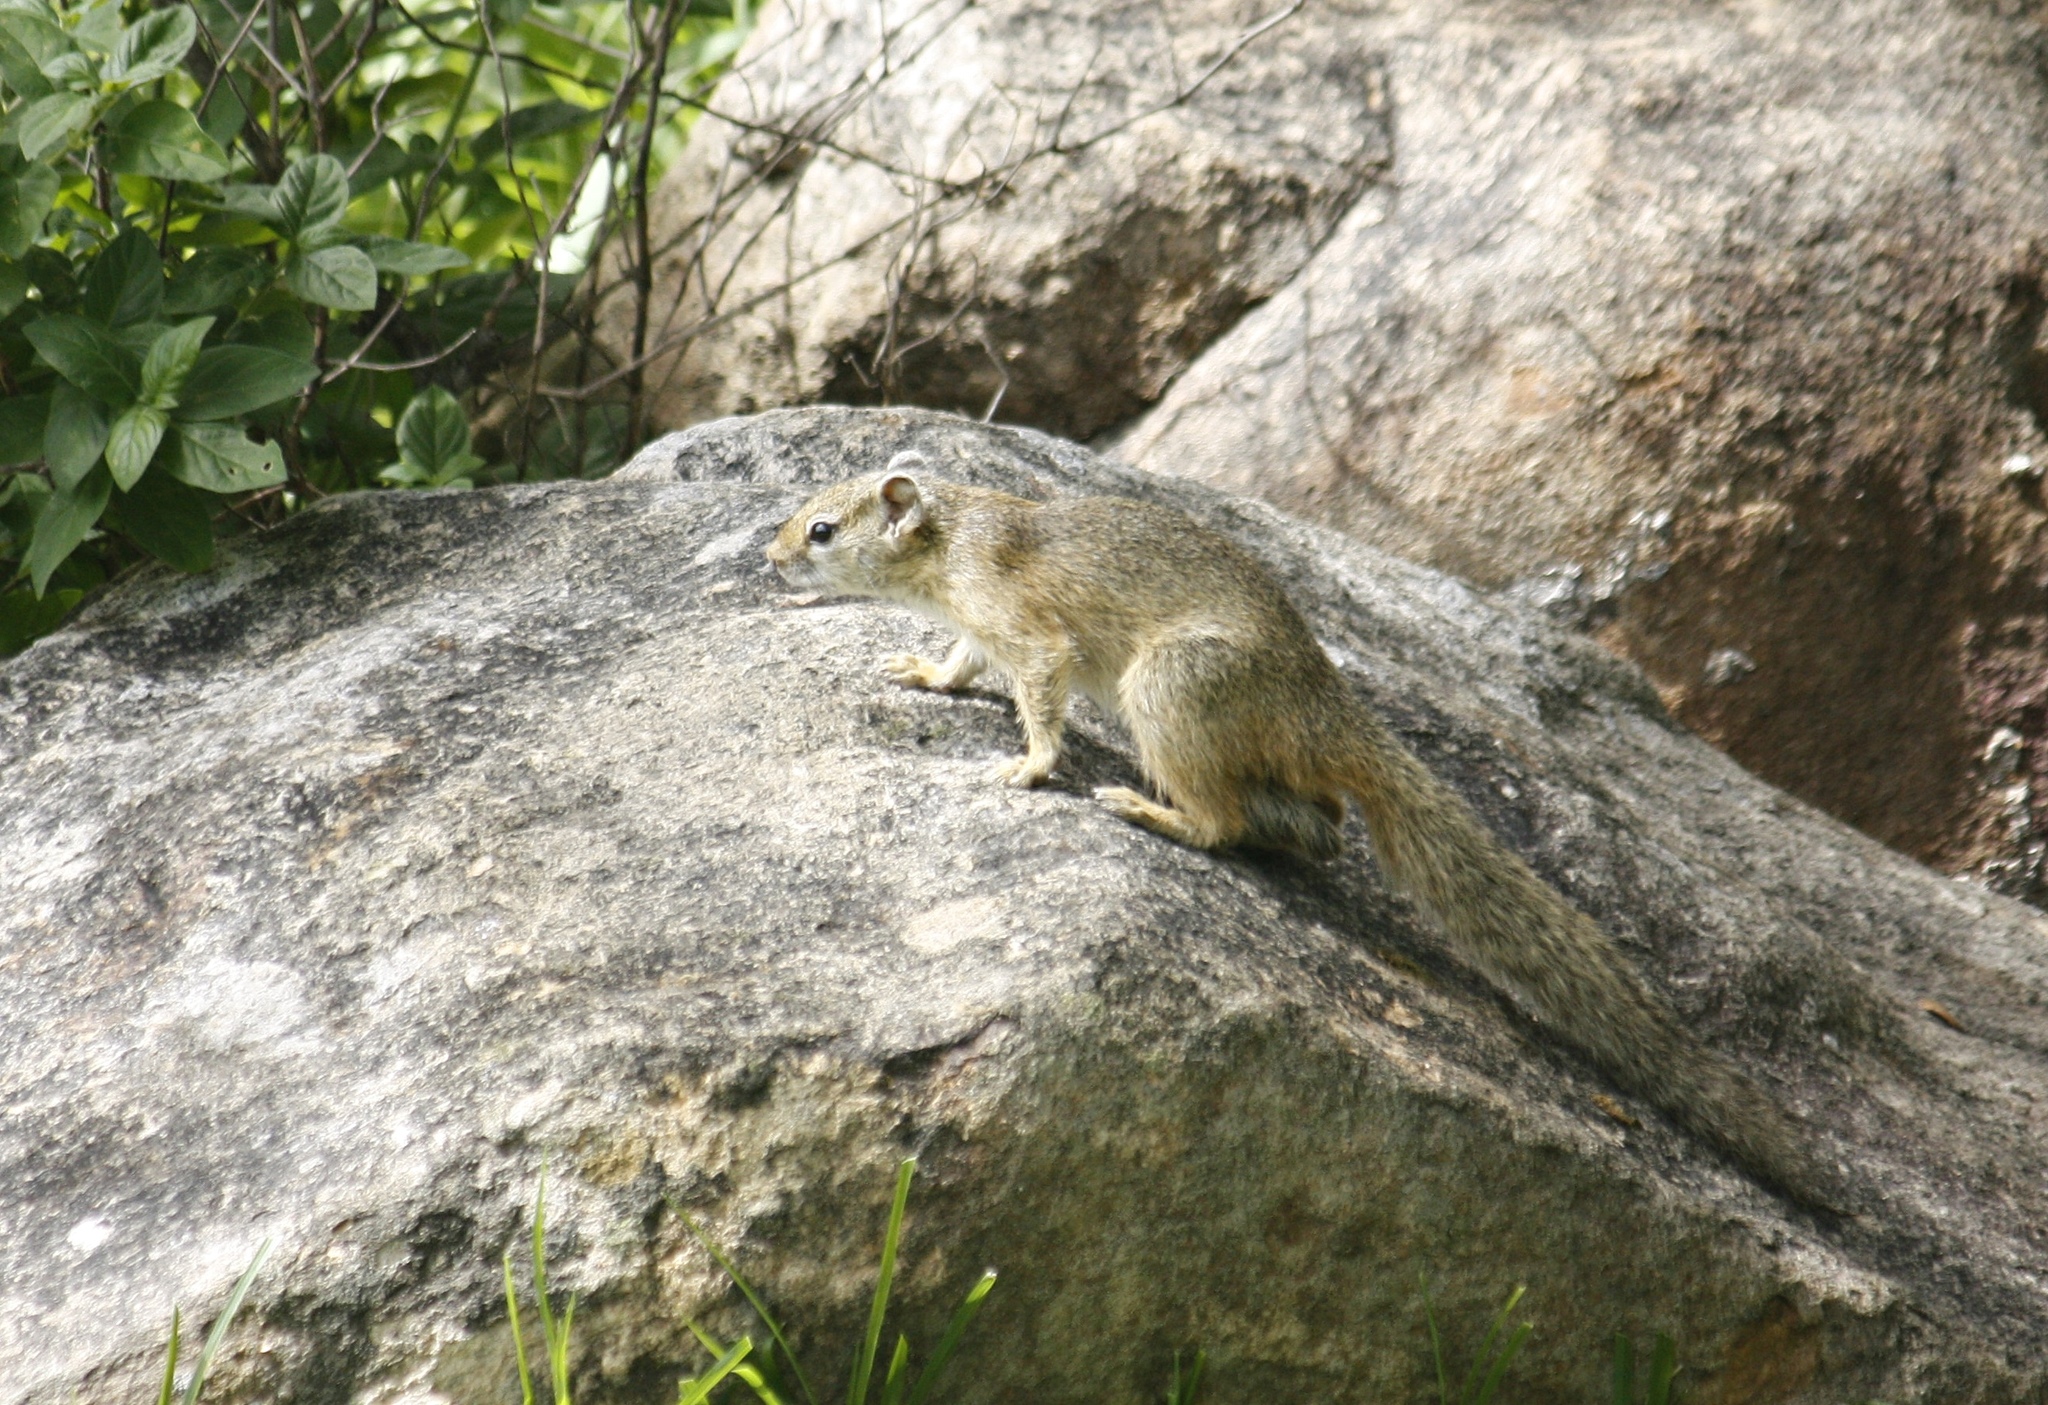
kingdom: Animalia
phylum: Chordata
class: Mammalia
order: Rodentia
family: Sciuridae
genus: Paraxerus
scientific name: Paraxerus cepapi
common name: Smith's bush squirrel
